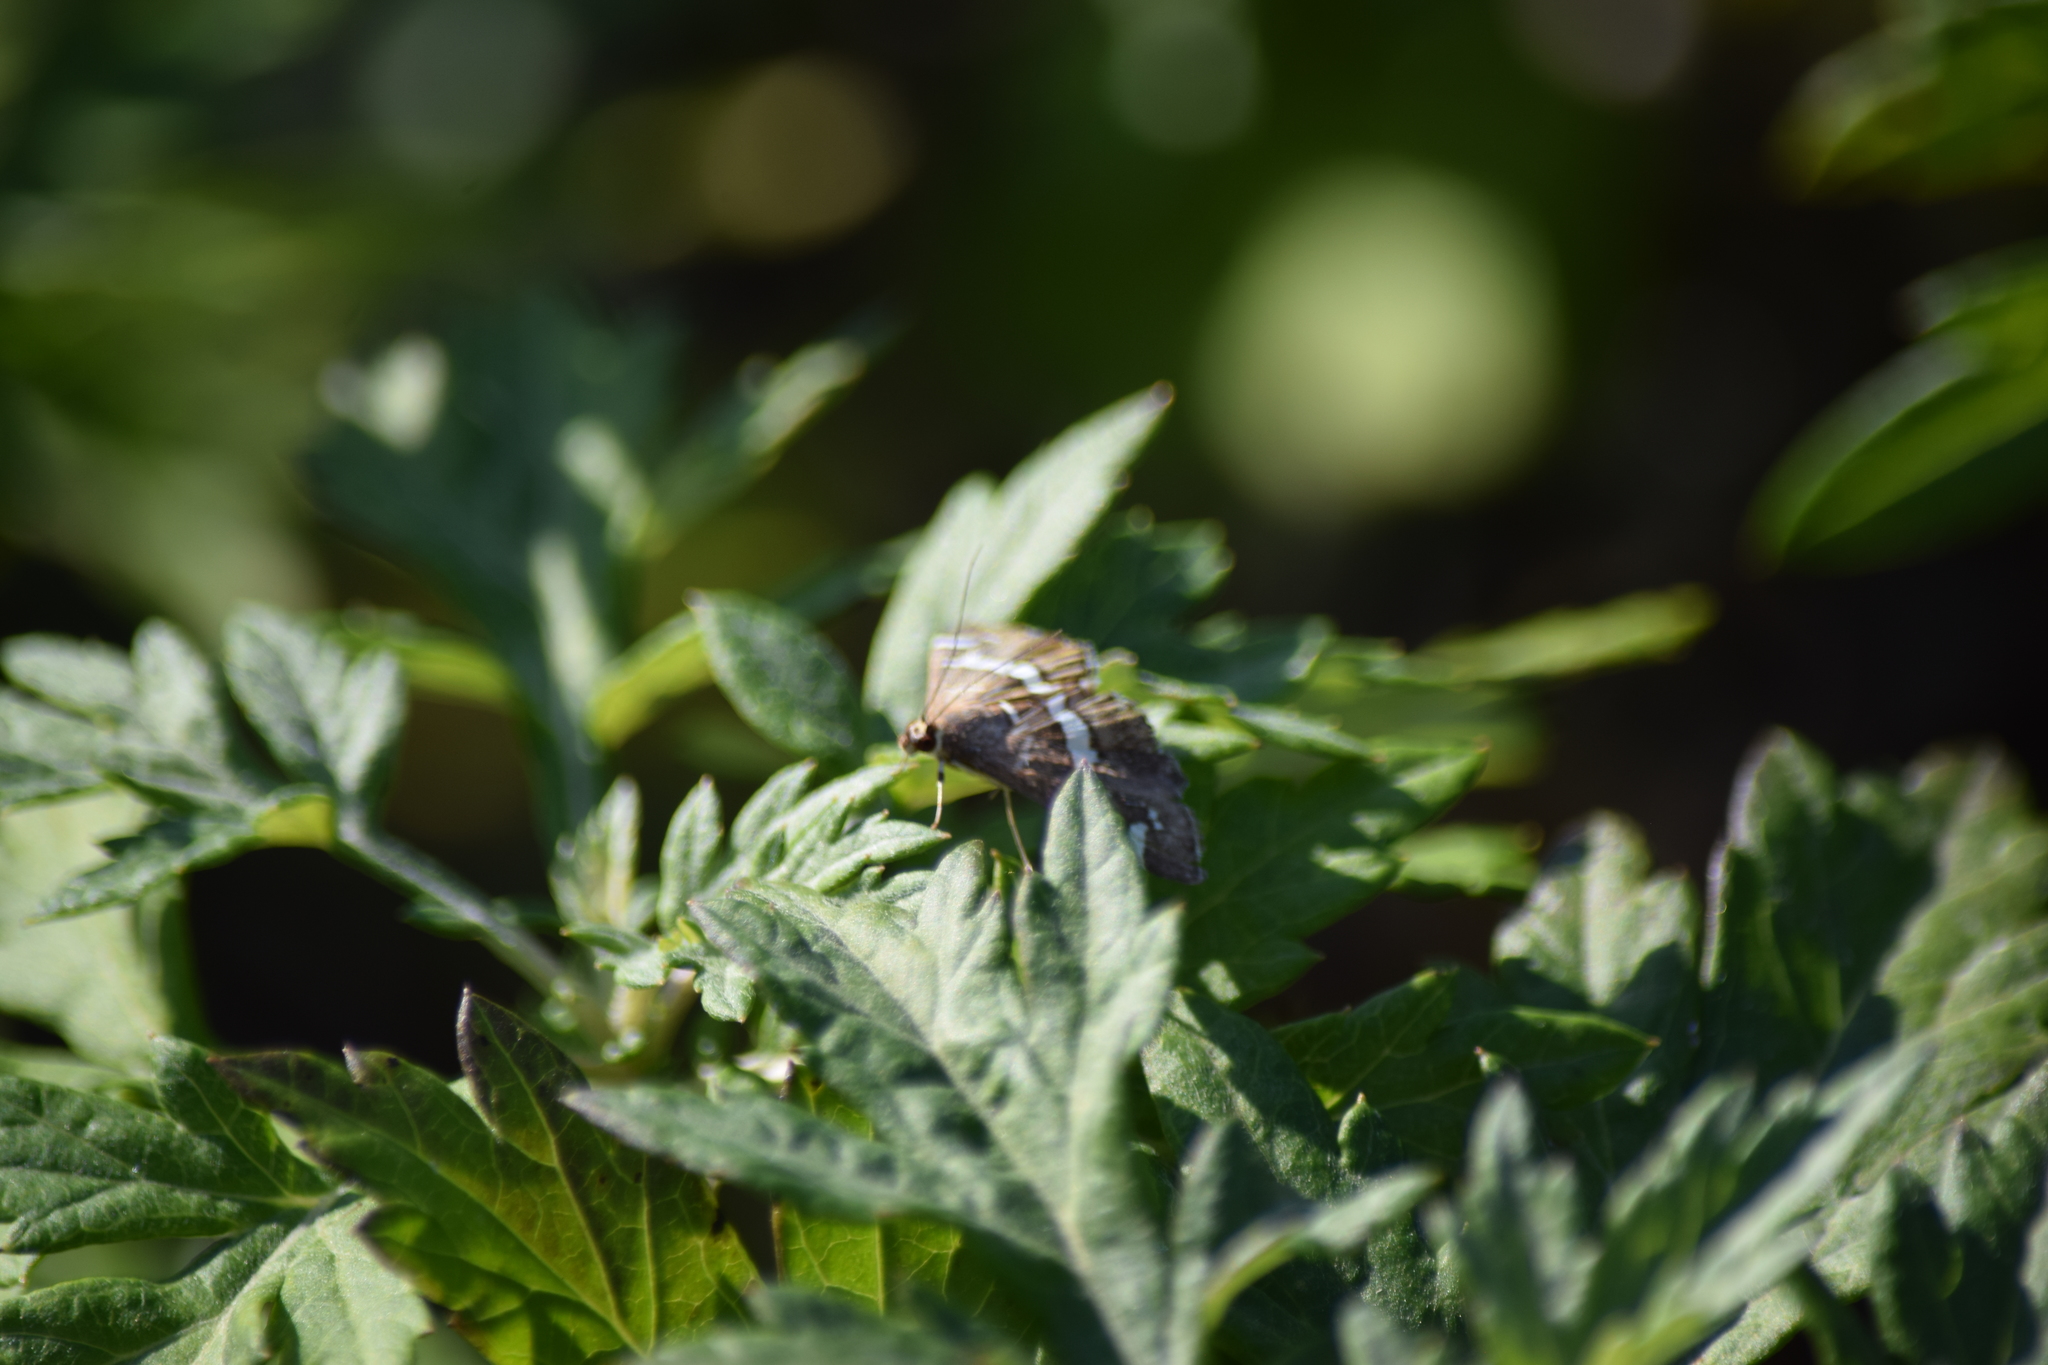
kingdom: Animalia
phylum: Arthropoda
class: Insecta
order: Lepidoptera
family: Crambidae
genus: Spoladea
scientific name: Spoladea recurvalis
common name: Beet webworm moth
